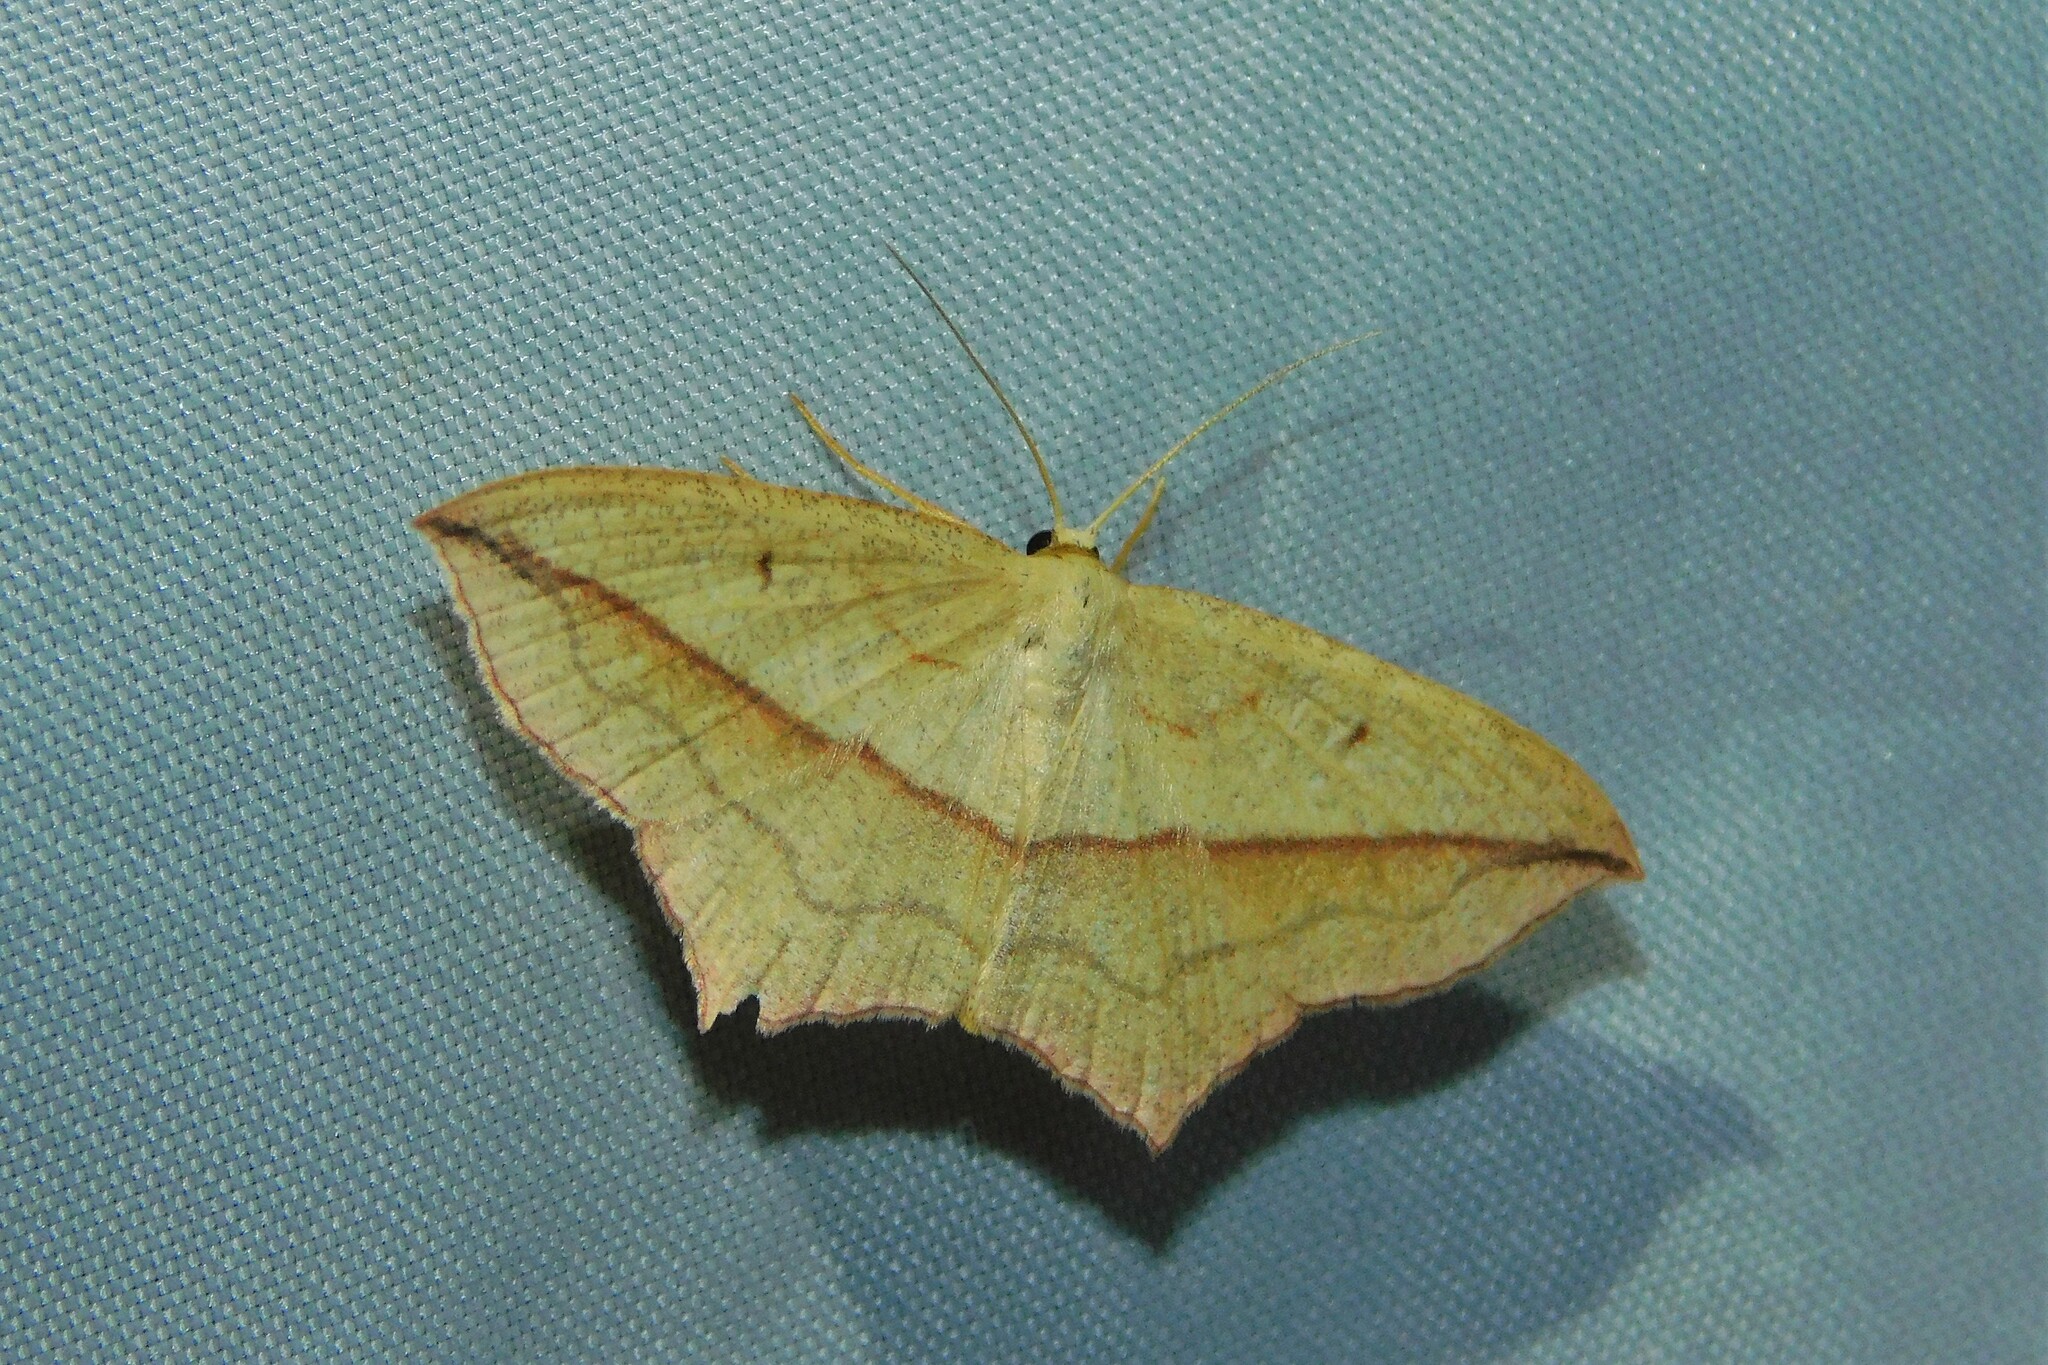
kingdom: Animalia
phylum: Arthropoda
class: Insecta
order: Lepidoptera
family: Geometridae
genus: Timandra
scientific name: Timandra comae
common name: Blood-vein
